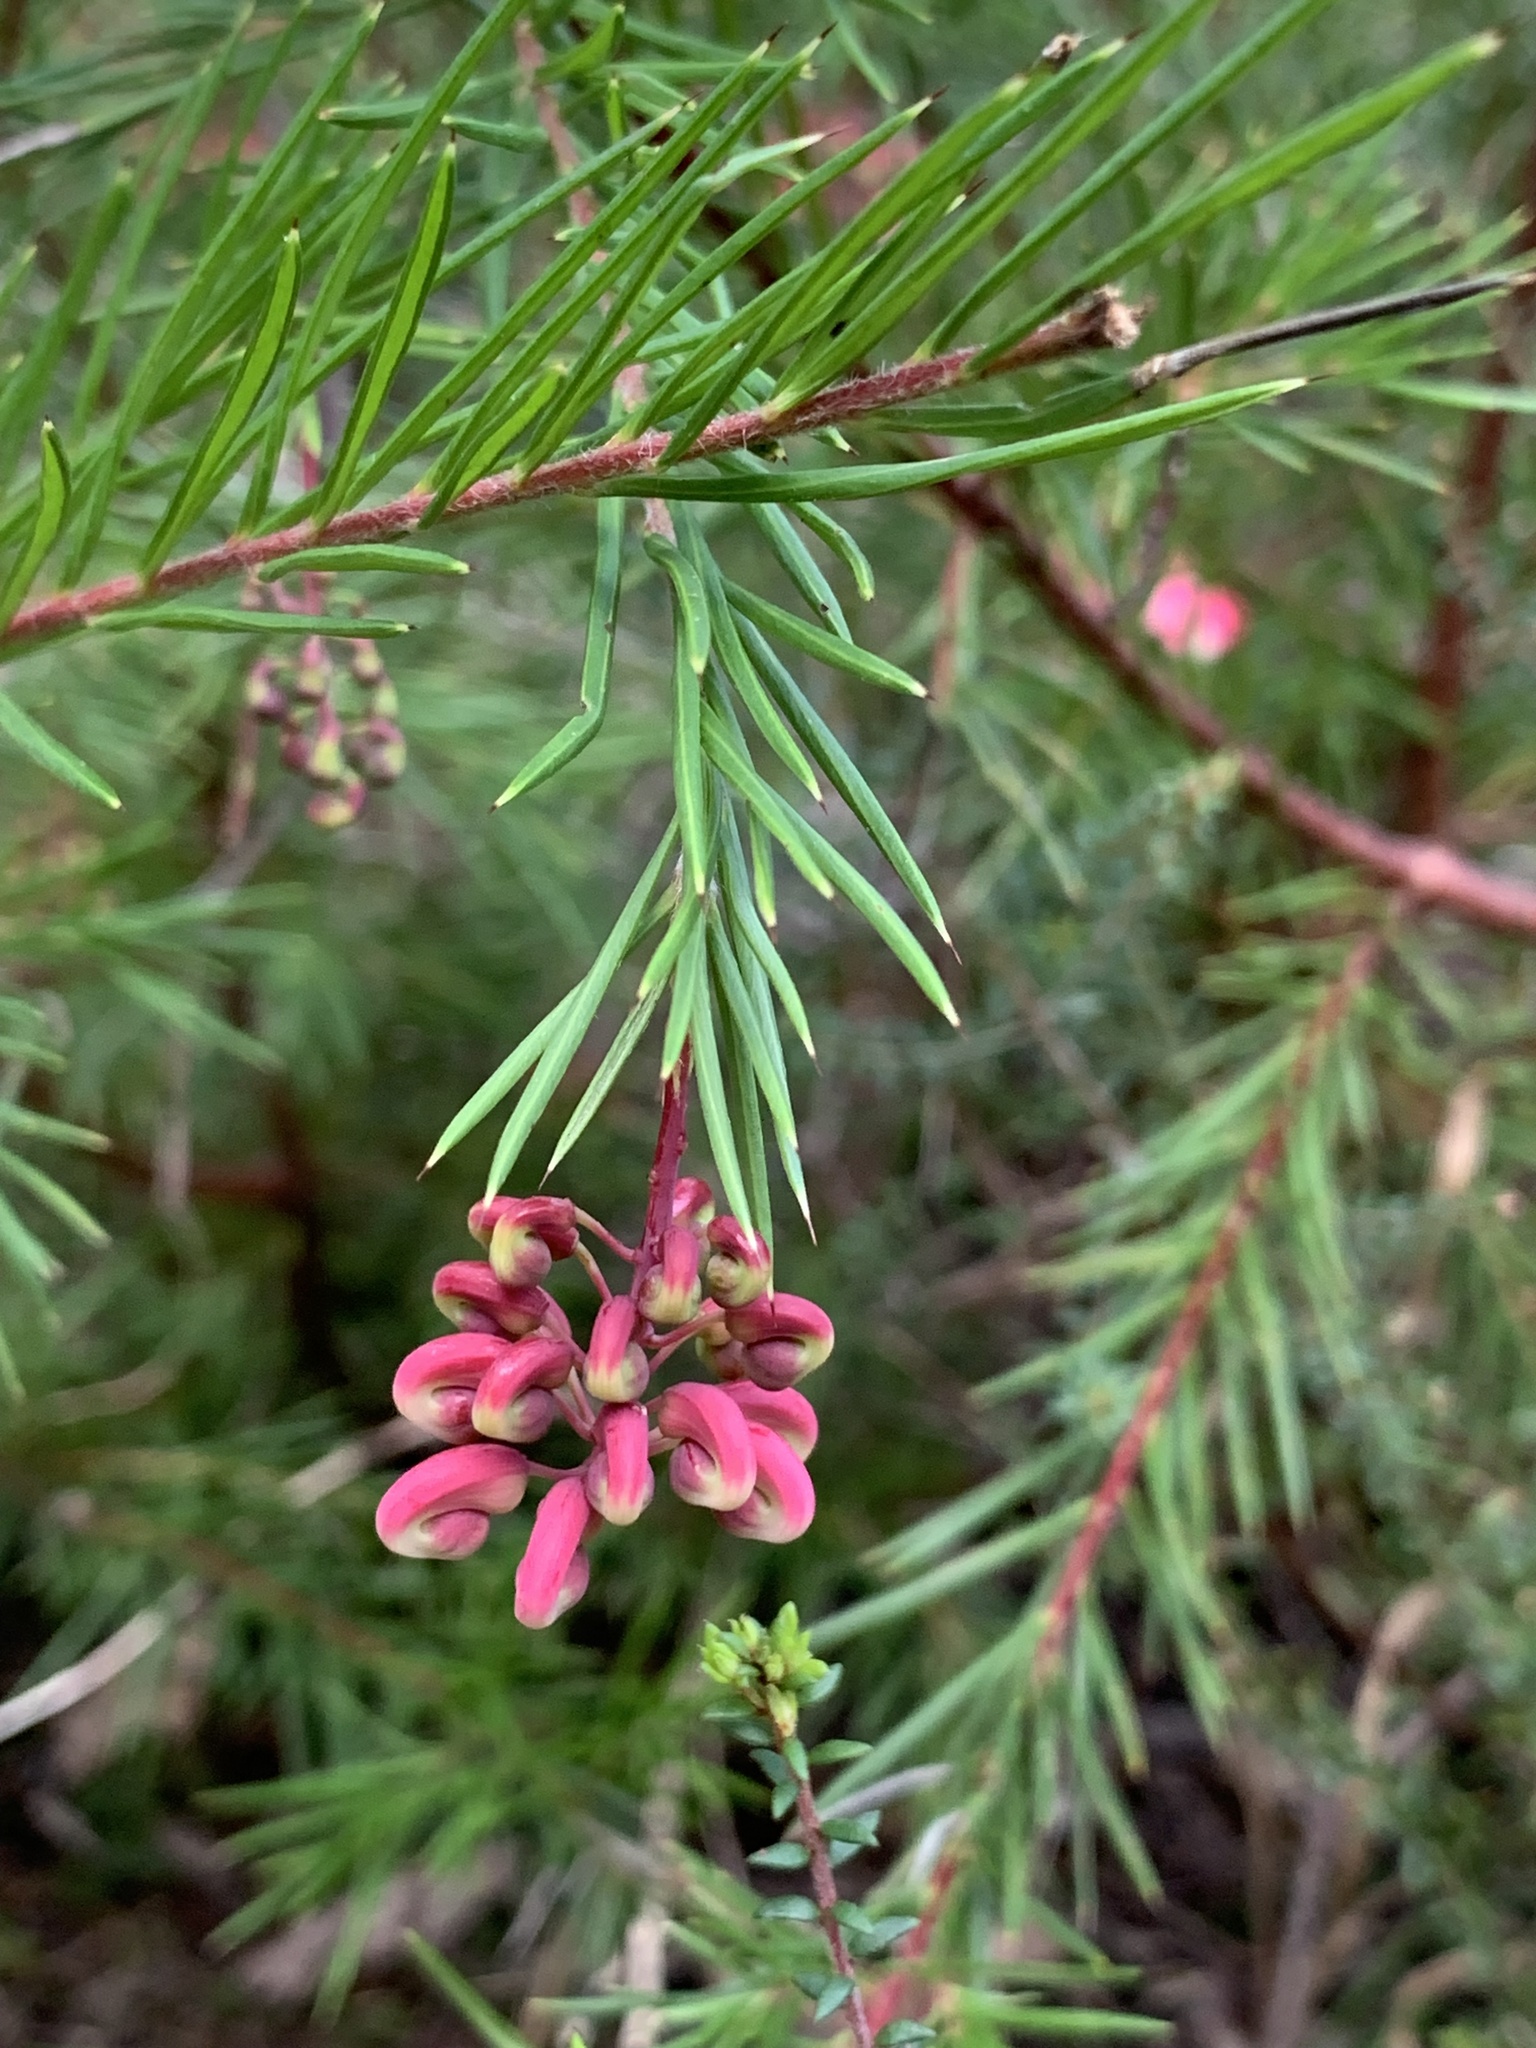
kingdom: Plantae
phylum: Tracheophyta
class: Magnoliopsida
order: Proteales
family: Proteaceae
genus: Grevillea
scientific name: Grevillea rosmarinifolia
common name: Rosemary grevillea
